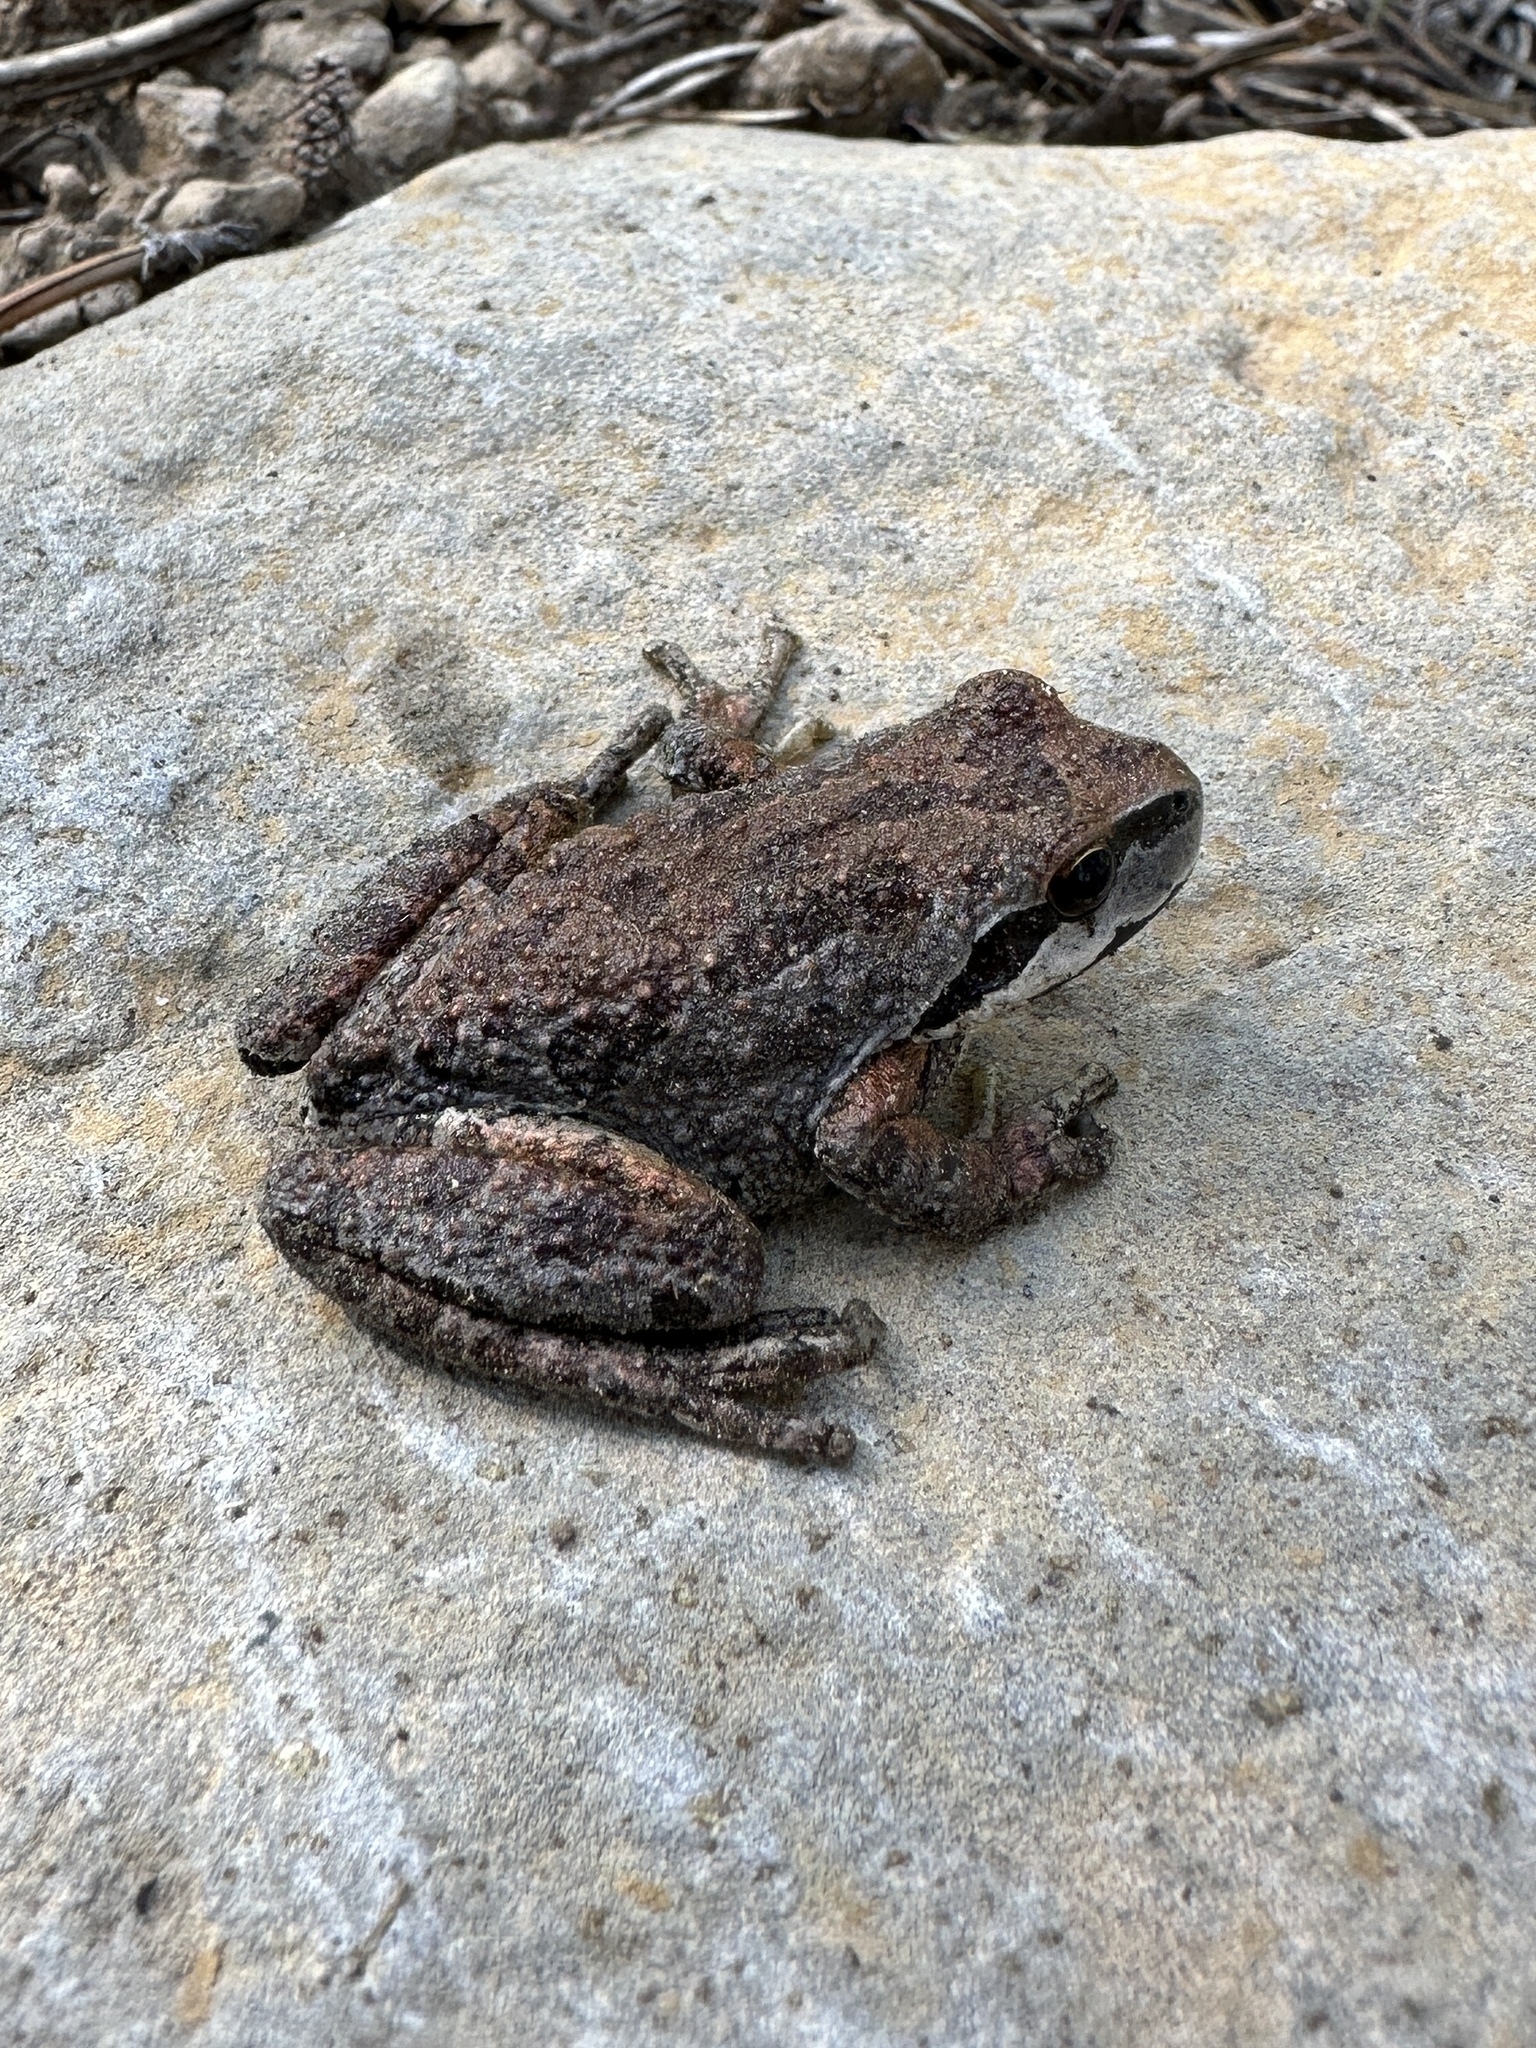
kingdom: Animalia
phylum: Chordata
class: Amphibia
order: Anura
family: Hylidae
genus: Pseudacris
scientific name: Pseudacris regilla
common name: Pacific chorus frog
